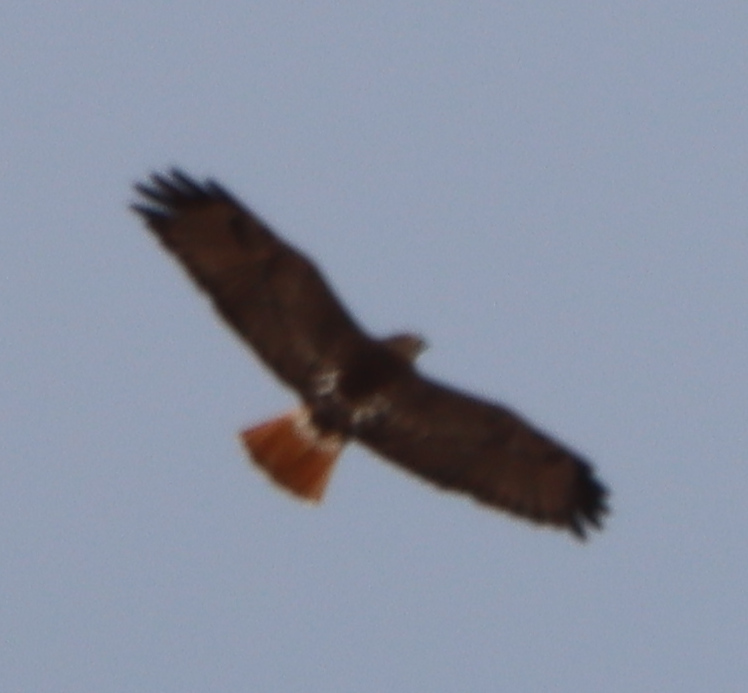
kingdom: Animalia
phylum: Chordata
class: Aves
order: Accipitriformes
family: Accipitridae
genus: Buteo
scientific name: Buteo jamaicensis
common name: Red-tailed hawk
